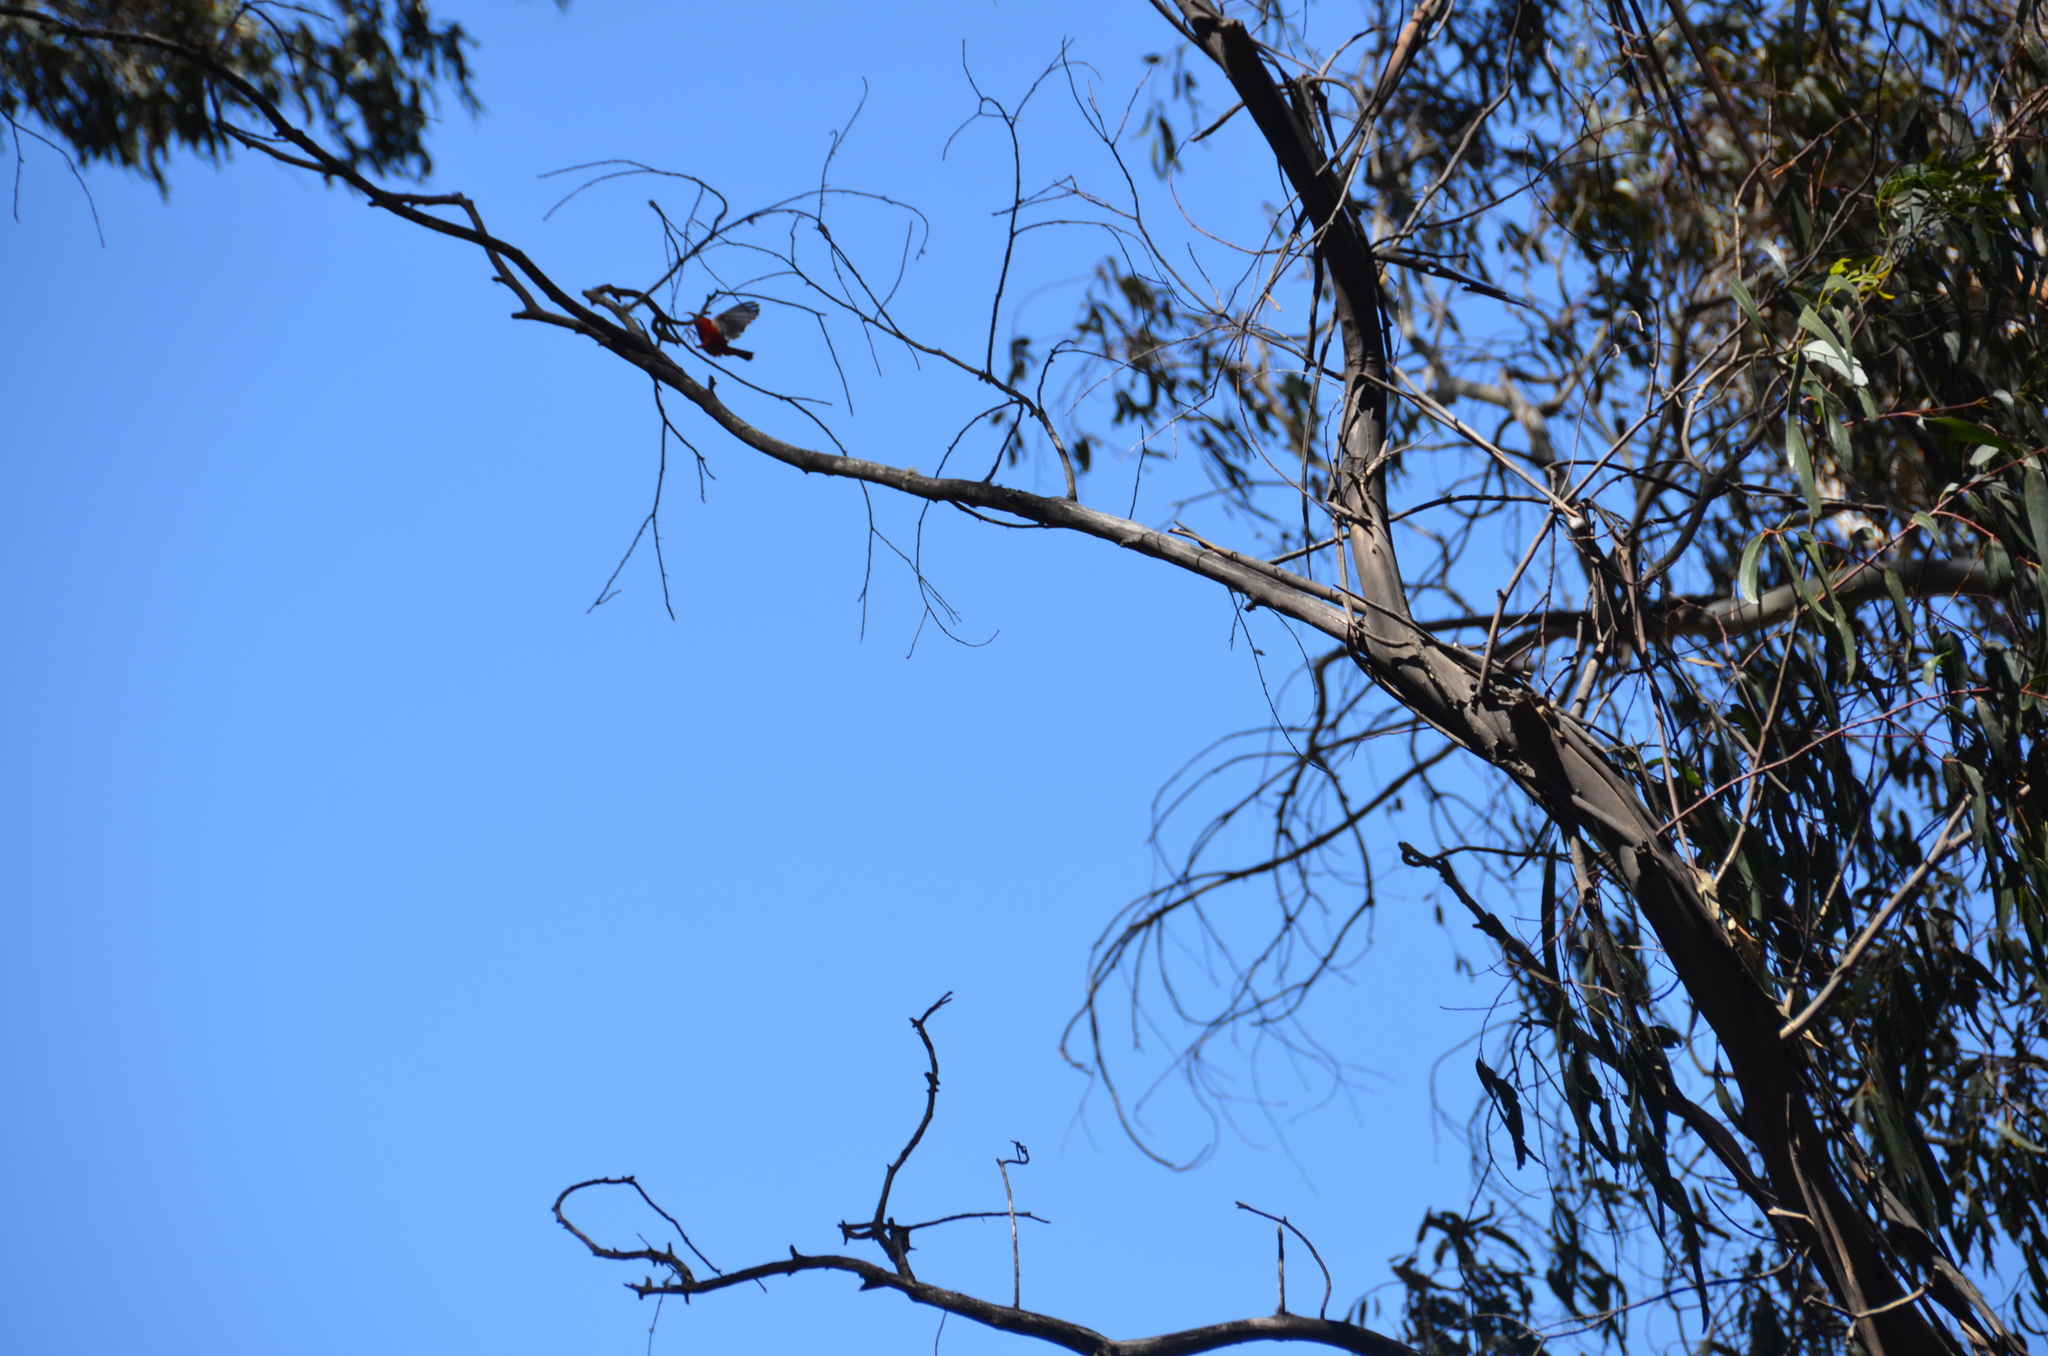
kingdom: Animalia
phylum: Chordata
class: Aves
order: Passeriformes
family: Fringillidae
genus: Vestiaria
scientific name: Vestiaria coccinea
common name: Iiwi
